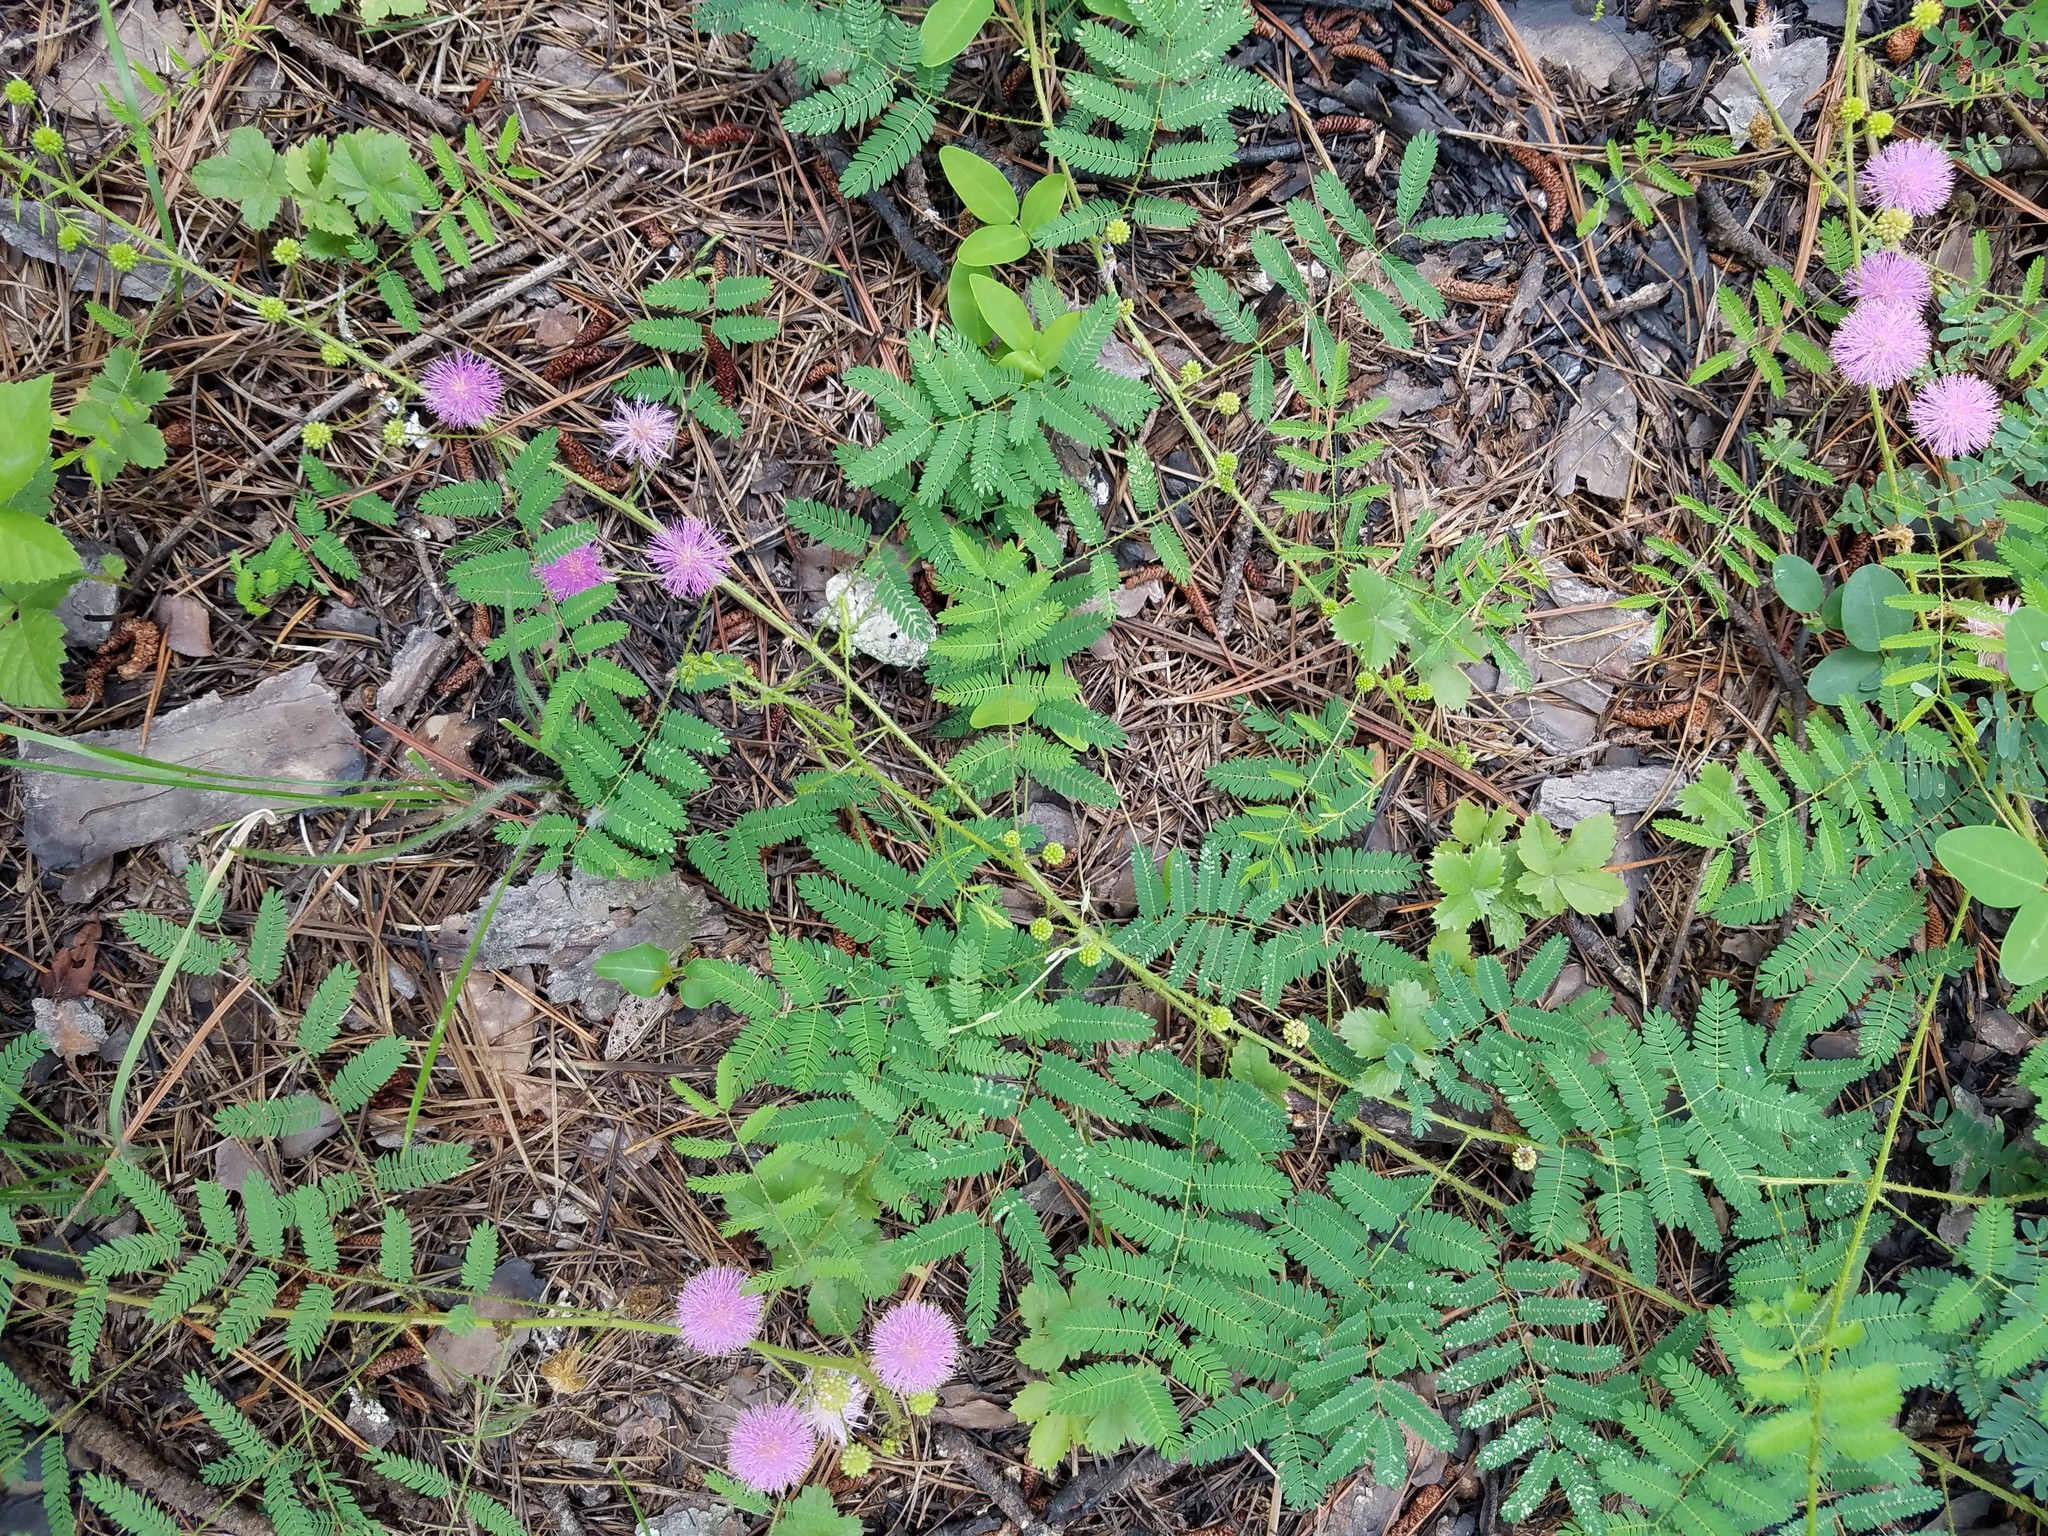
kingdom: Plantae
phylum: Tracheophyta
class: Magnoliopsida
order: Fabales
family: Fabaceae
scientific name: Fabaceae
